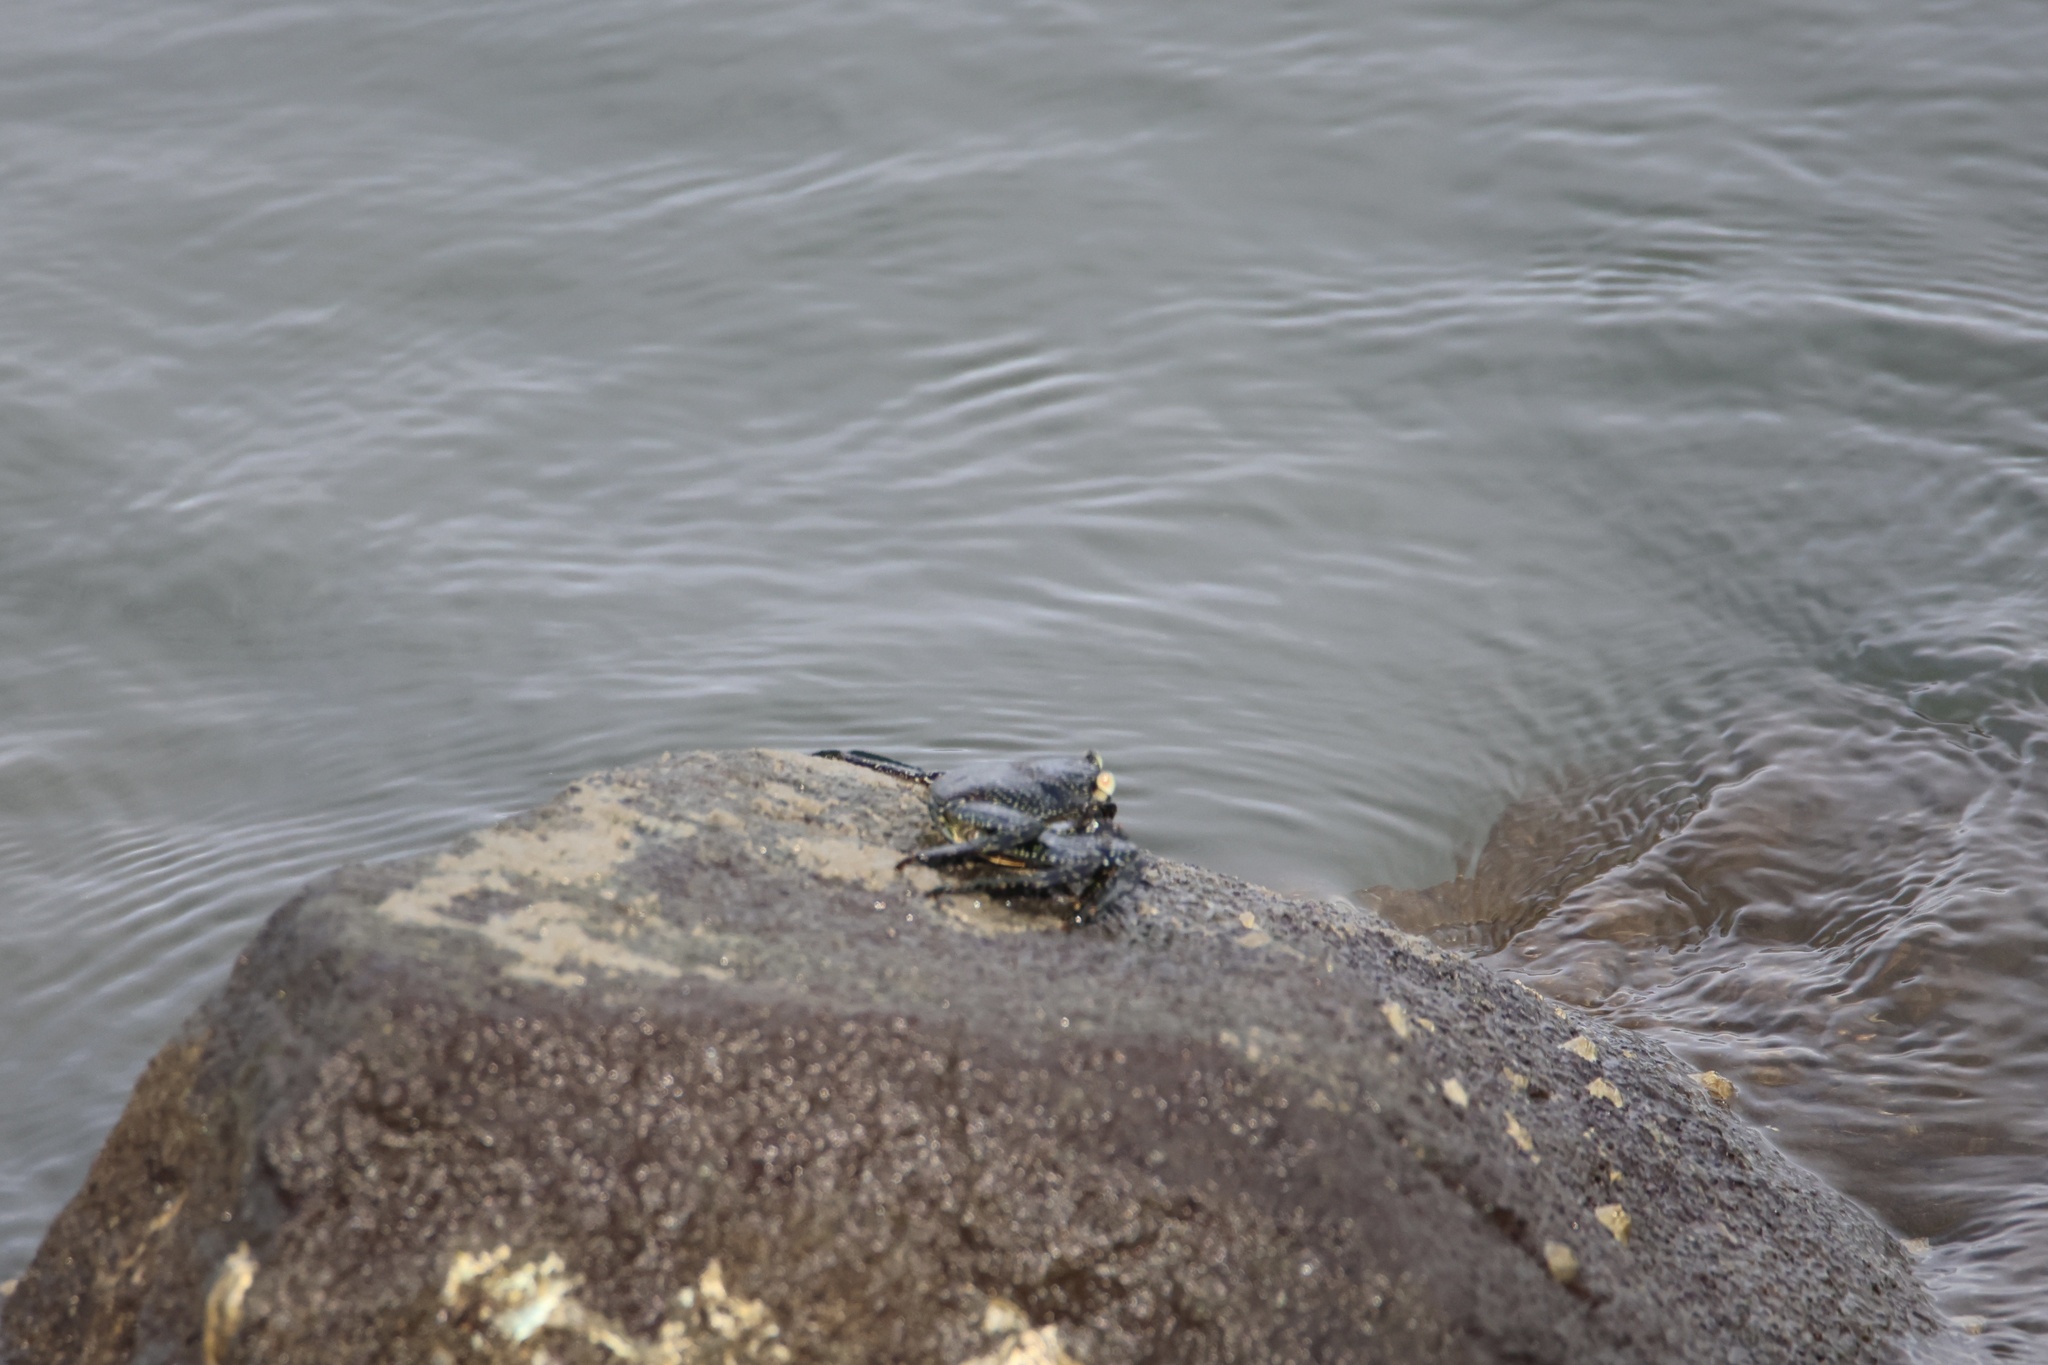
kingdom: Animalia
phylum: Arthropoda
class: Malacostraca
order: Decapoda
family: Grapsidae
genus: Grapsus
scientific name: Grapsus grapsus
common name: Sally lightfoot
